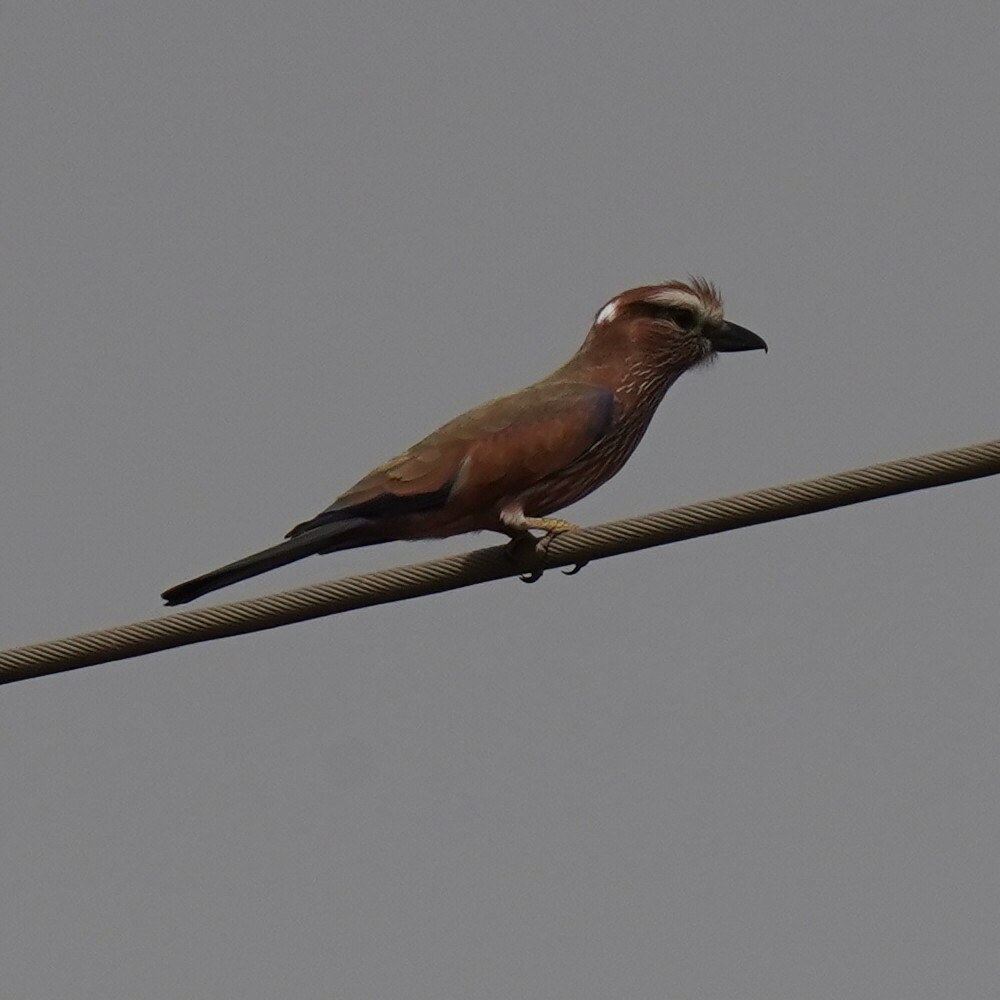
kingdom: Animalia
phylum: Chordata
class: Aves
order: Coraciiformes
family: Coraciidae
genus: Coracias
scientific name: Coracias naevius
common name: Purple roller
